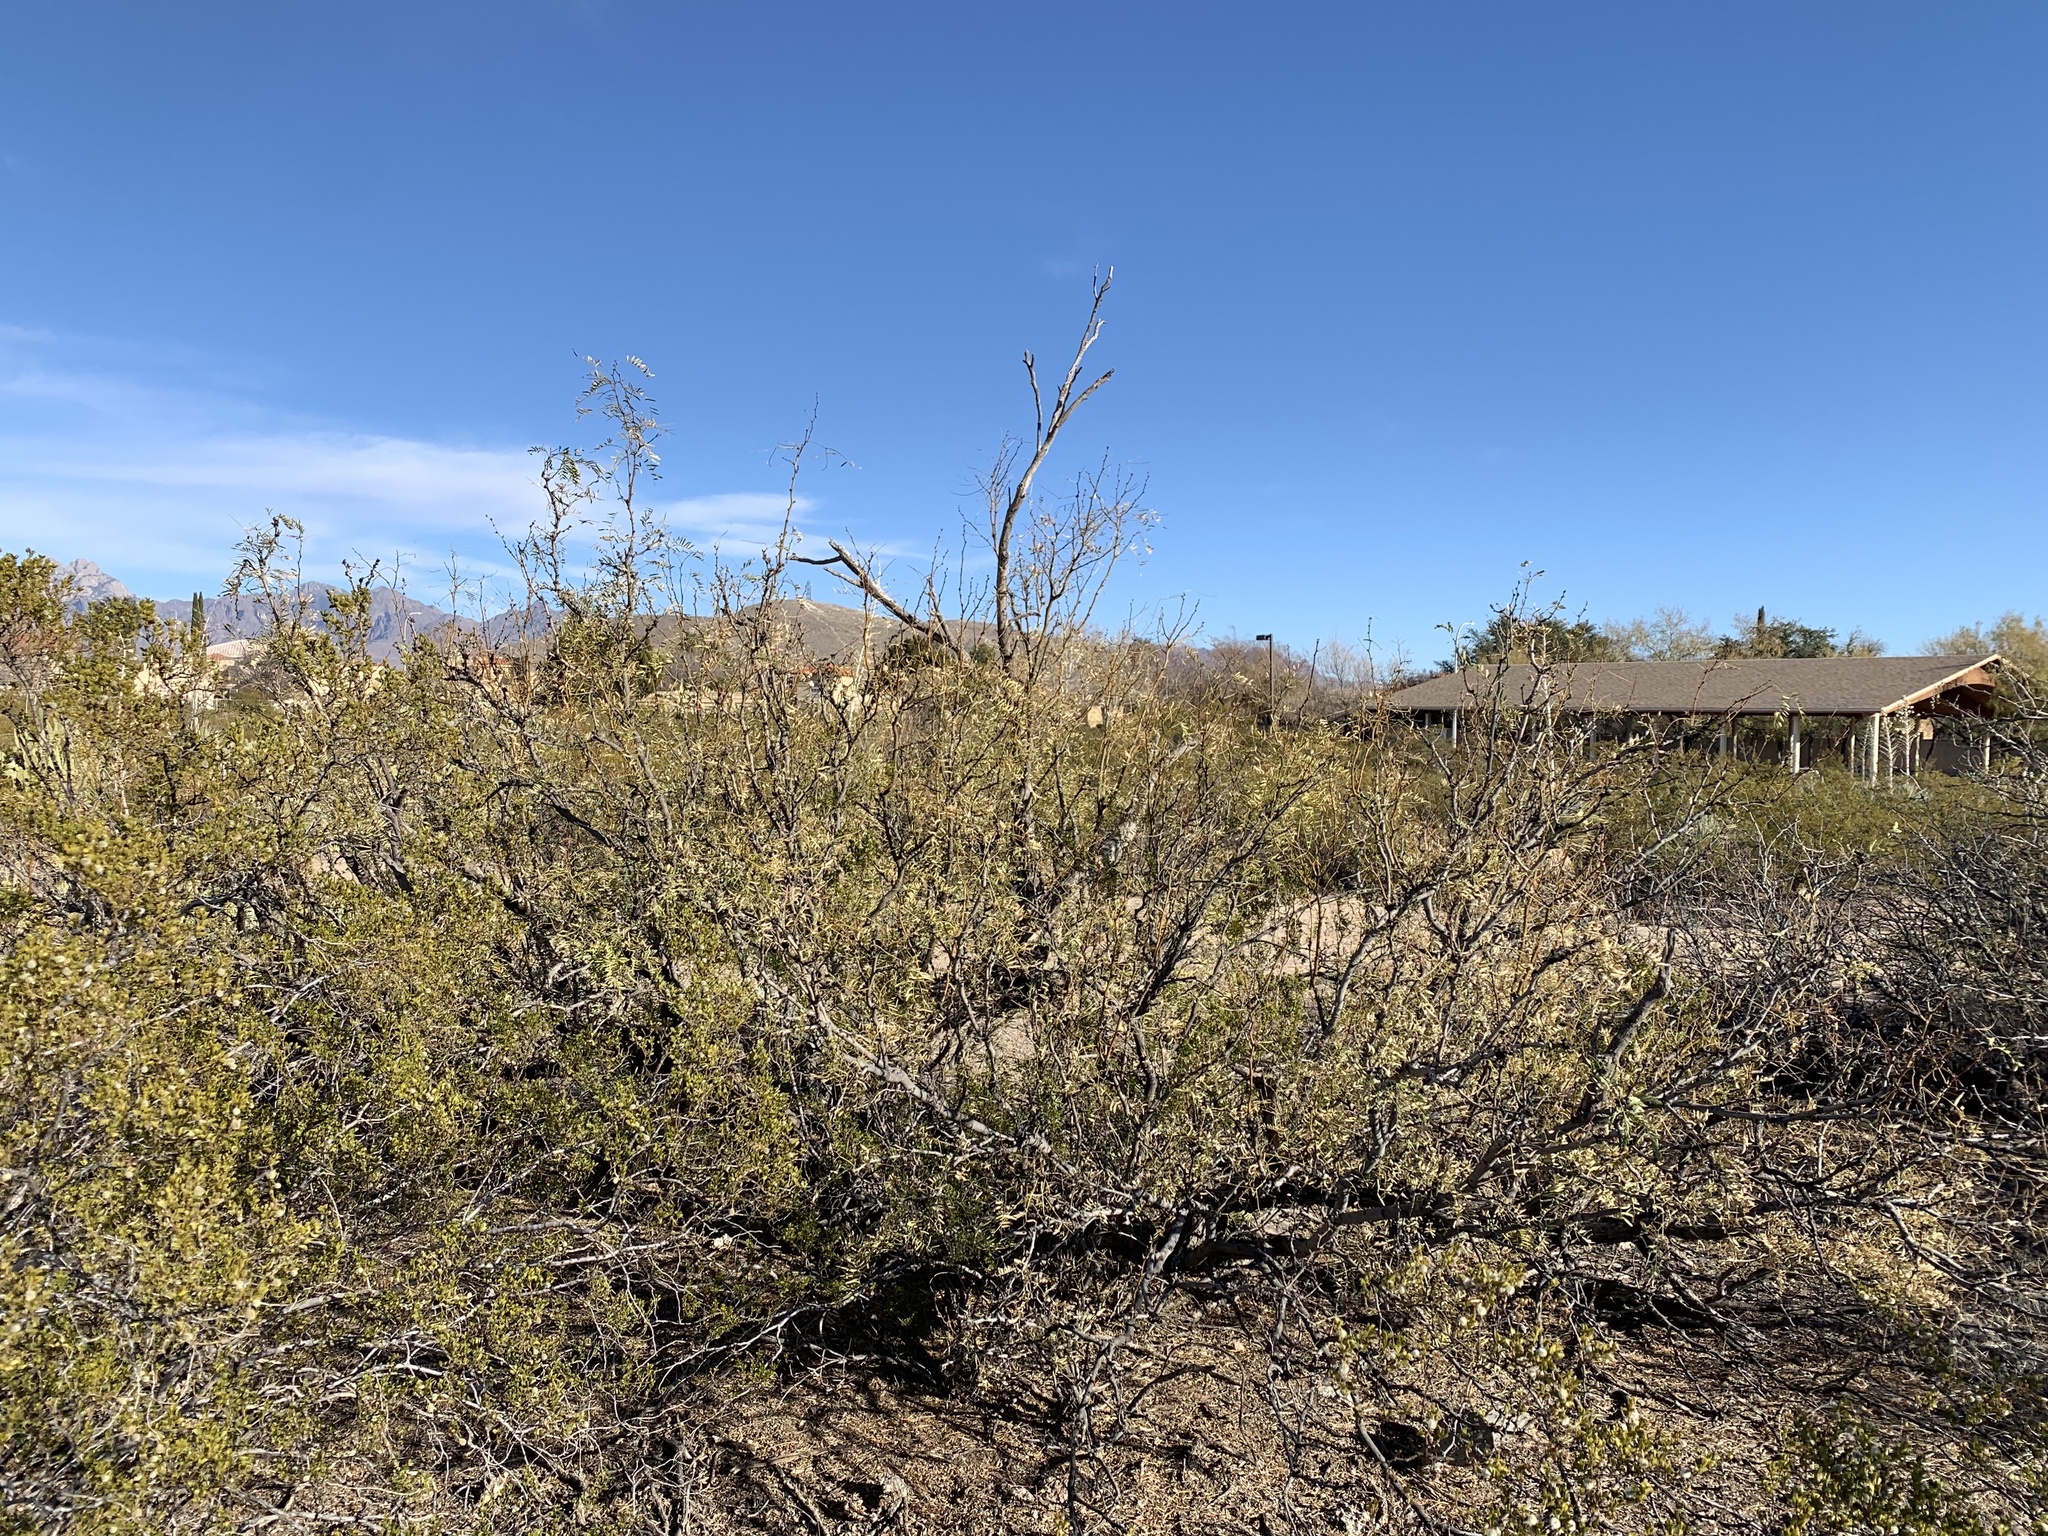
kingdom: Plantae
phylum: Tracheophyta
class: Magnoliopsida
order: Fabales
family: Fabaceae
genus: Prosopis
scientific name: Prosopis glandulosa
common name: Honey mesquite
